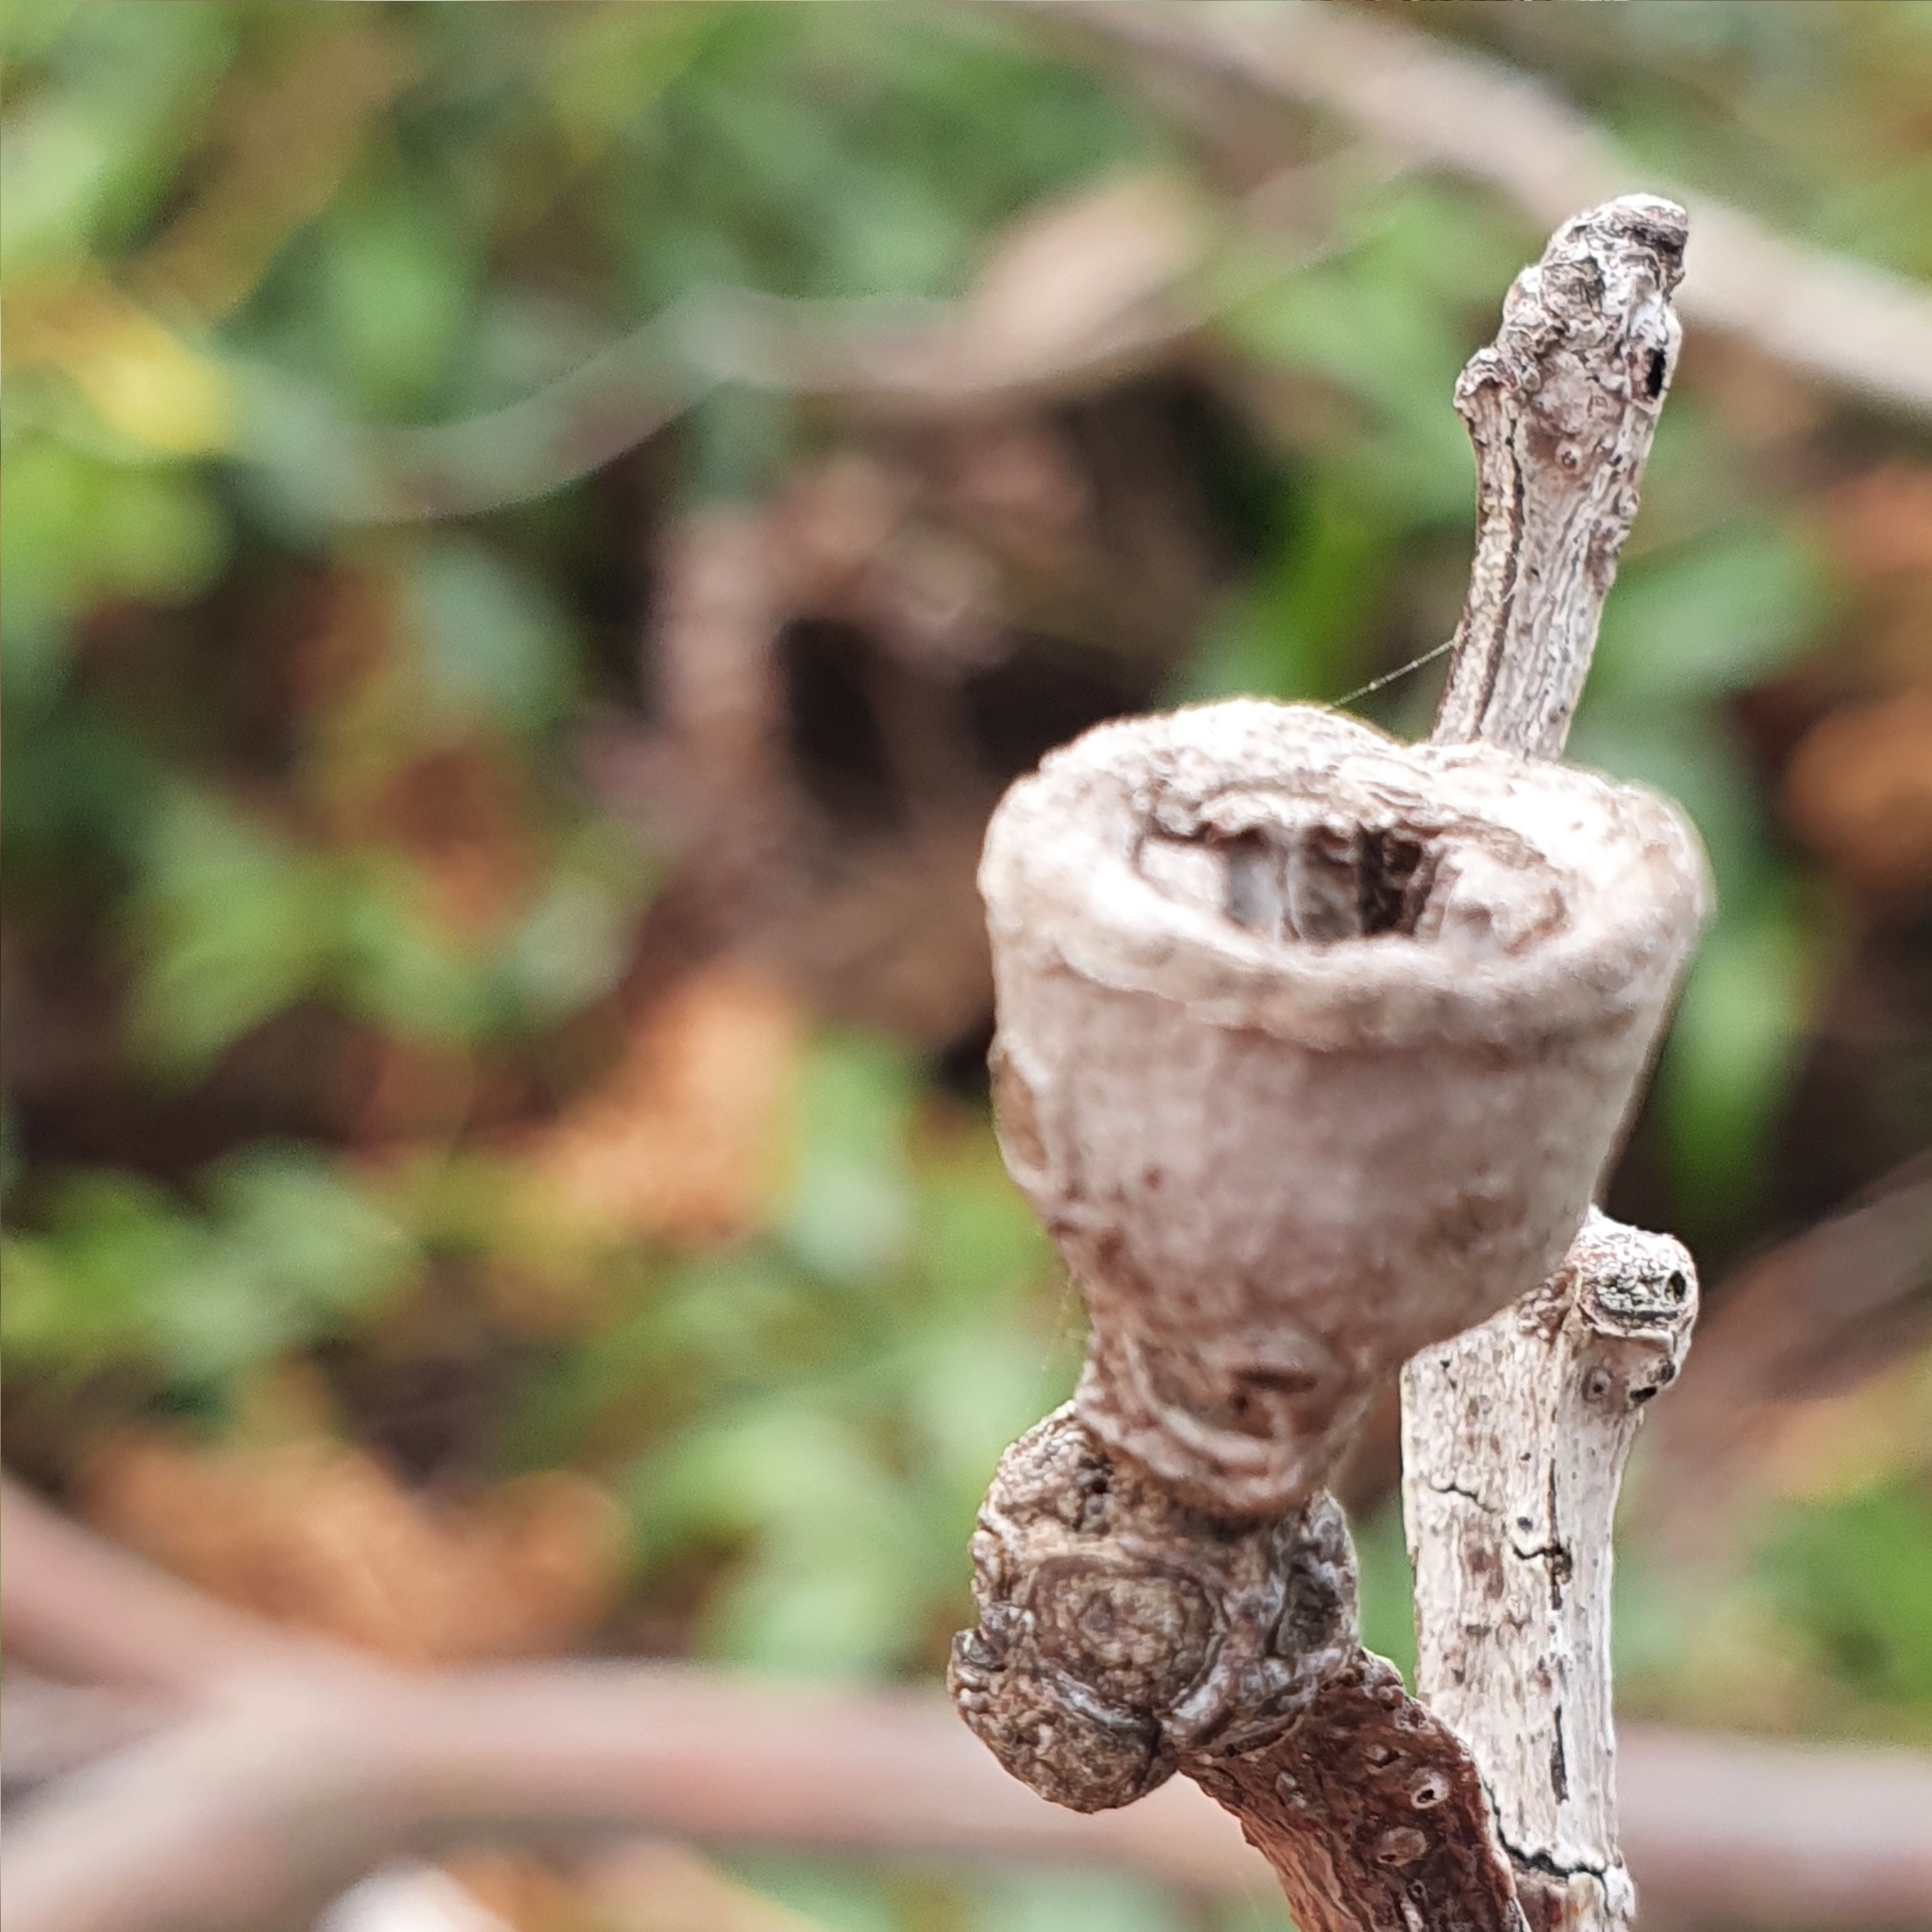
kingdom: Plantae
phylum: Tracheophyta
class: Magnoliopsida
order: Myrtales
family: Myrtaceae
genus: Eucalyptus
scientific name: Eucalyptus botryoides
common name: Bangalay
